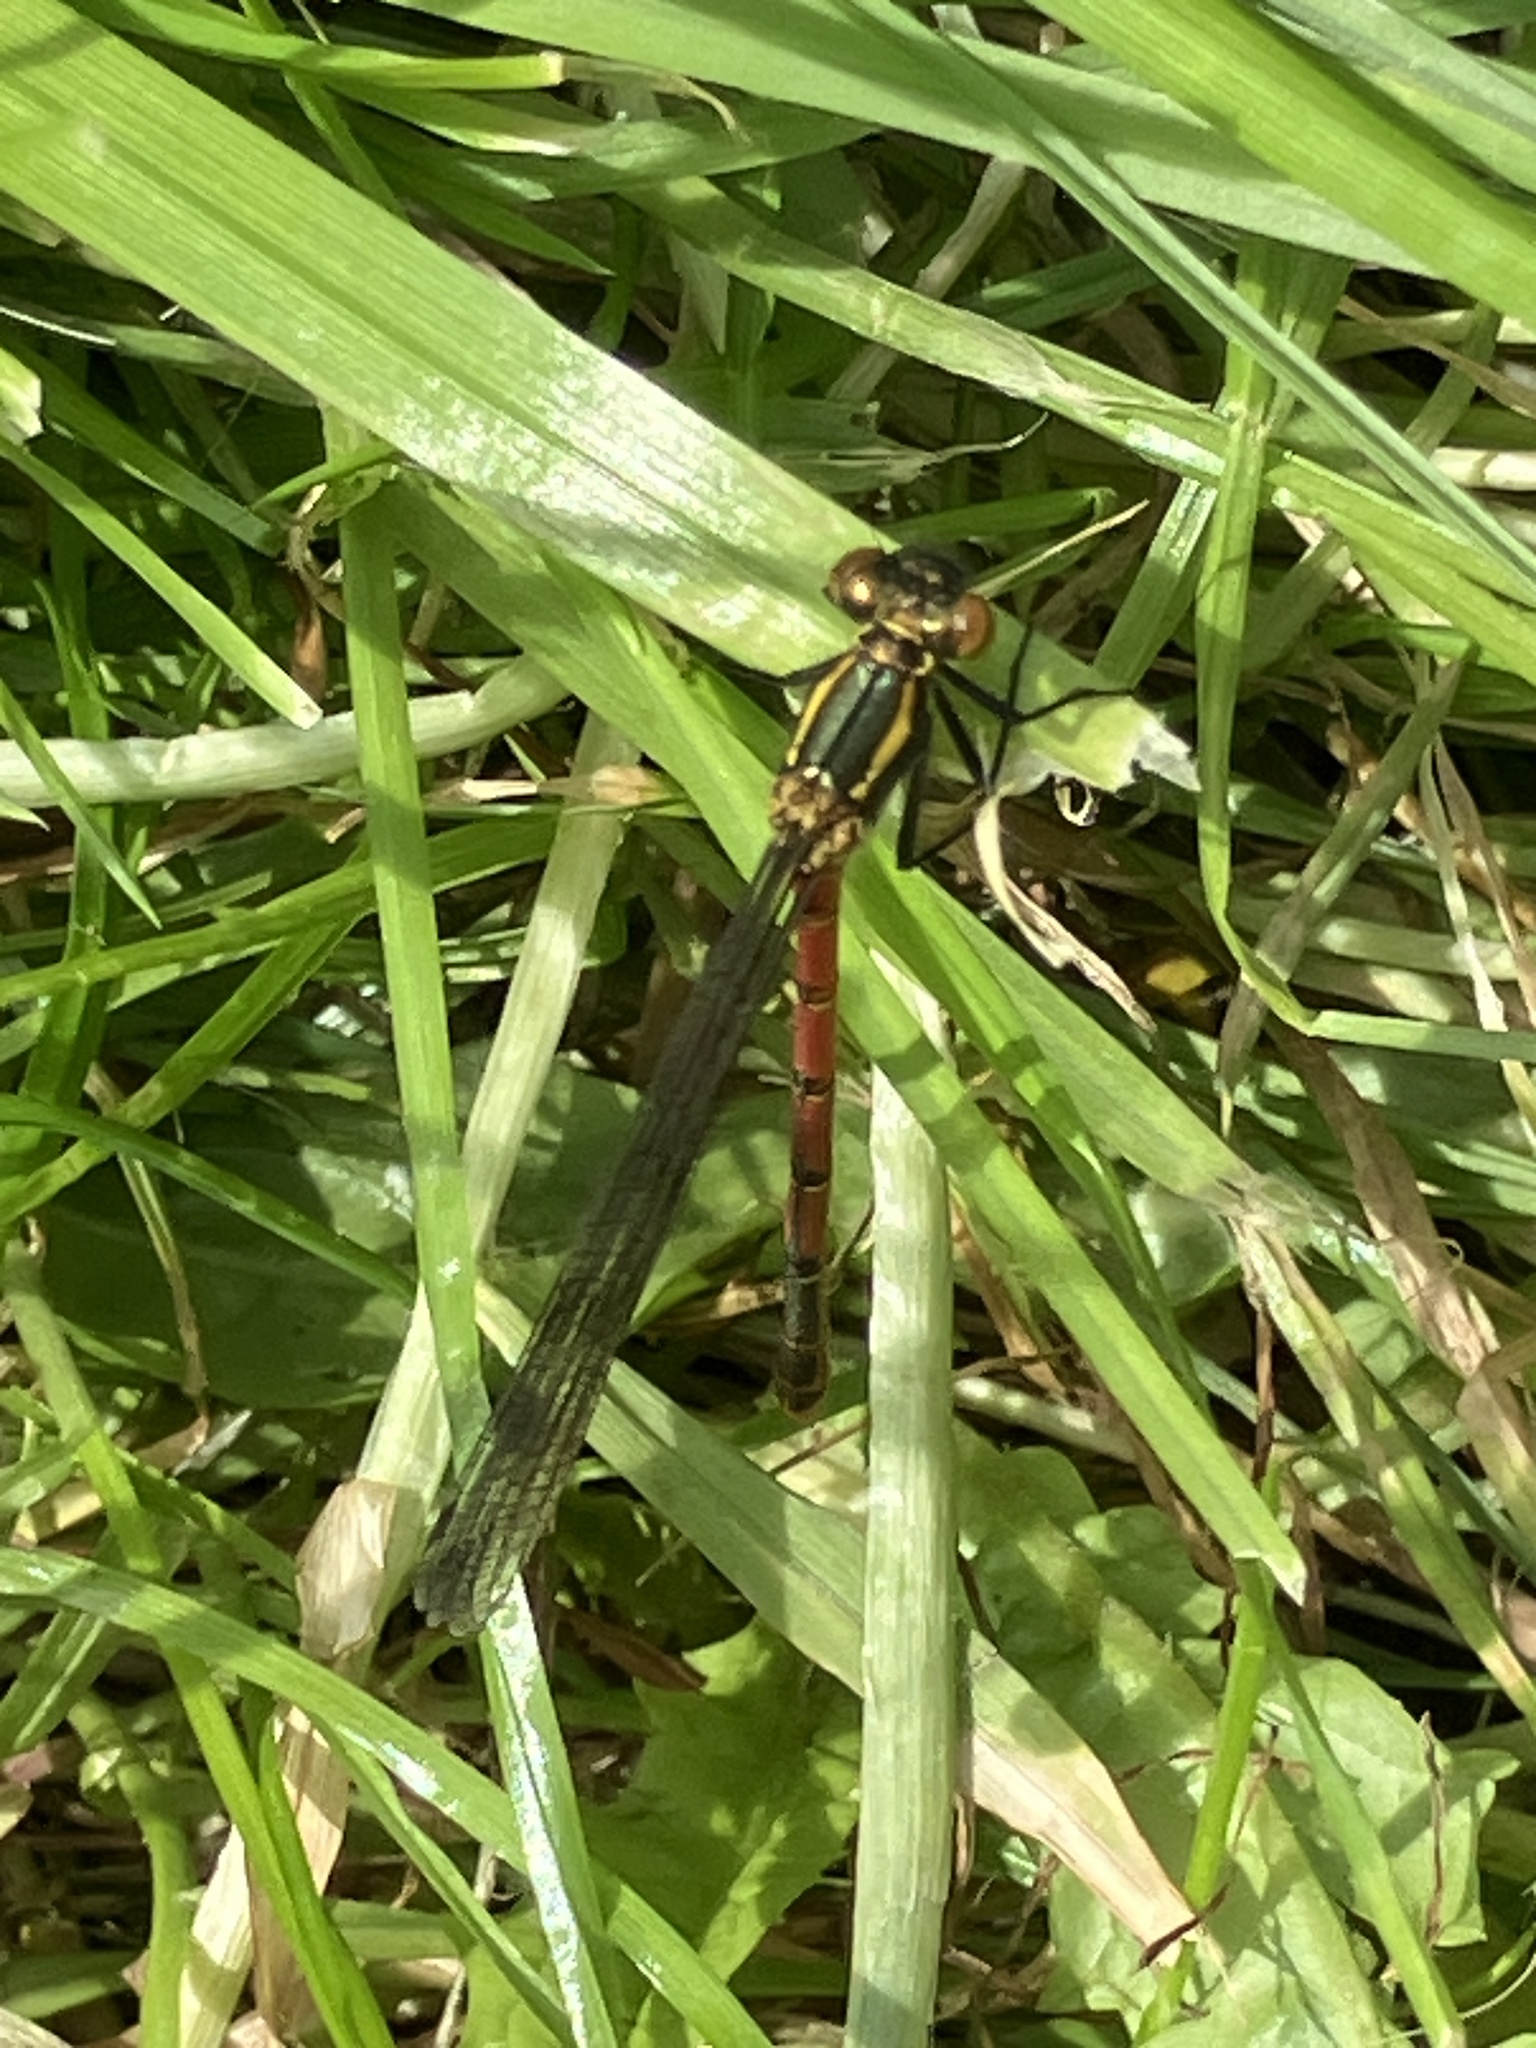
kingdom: Animalia
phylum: Arthropoda
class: Insecta
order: Odonata
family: Coenagrionidae
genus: Pyrrhosoma
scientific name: Pyrrhosoma nymphula
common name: Large red damsel
